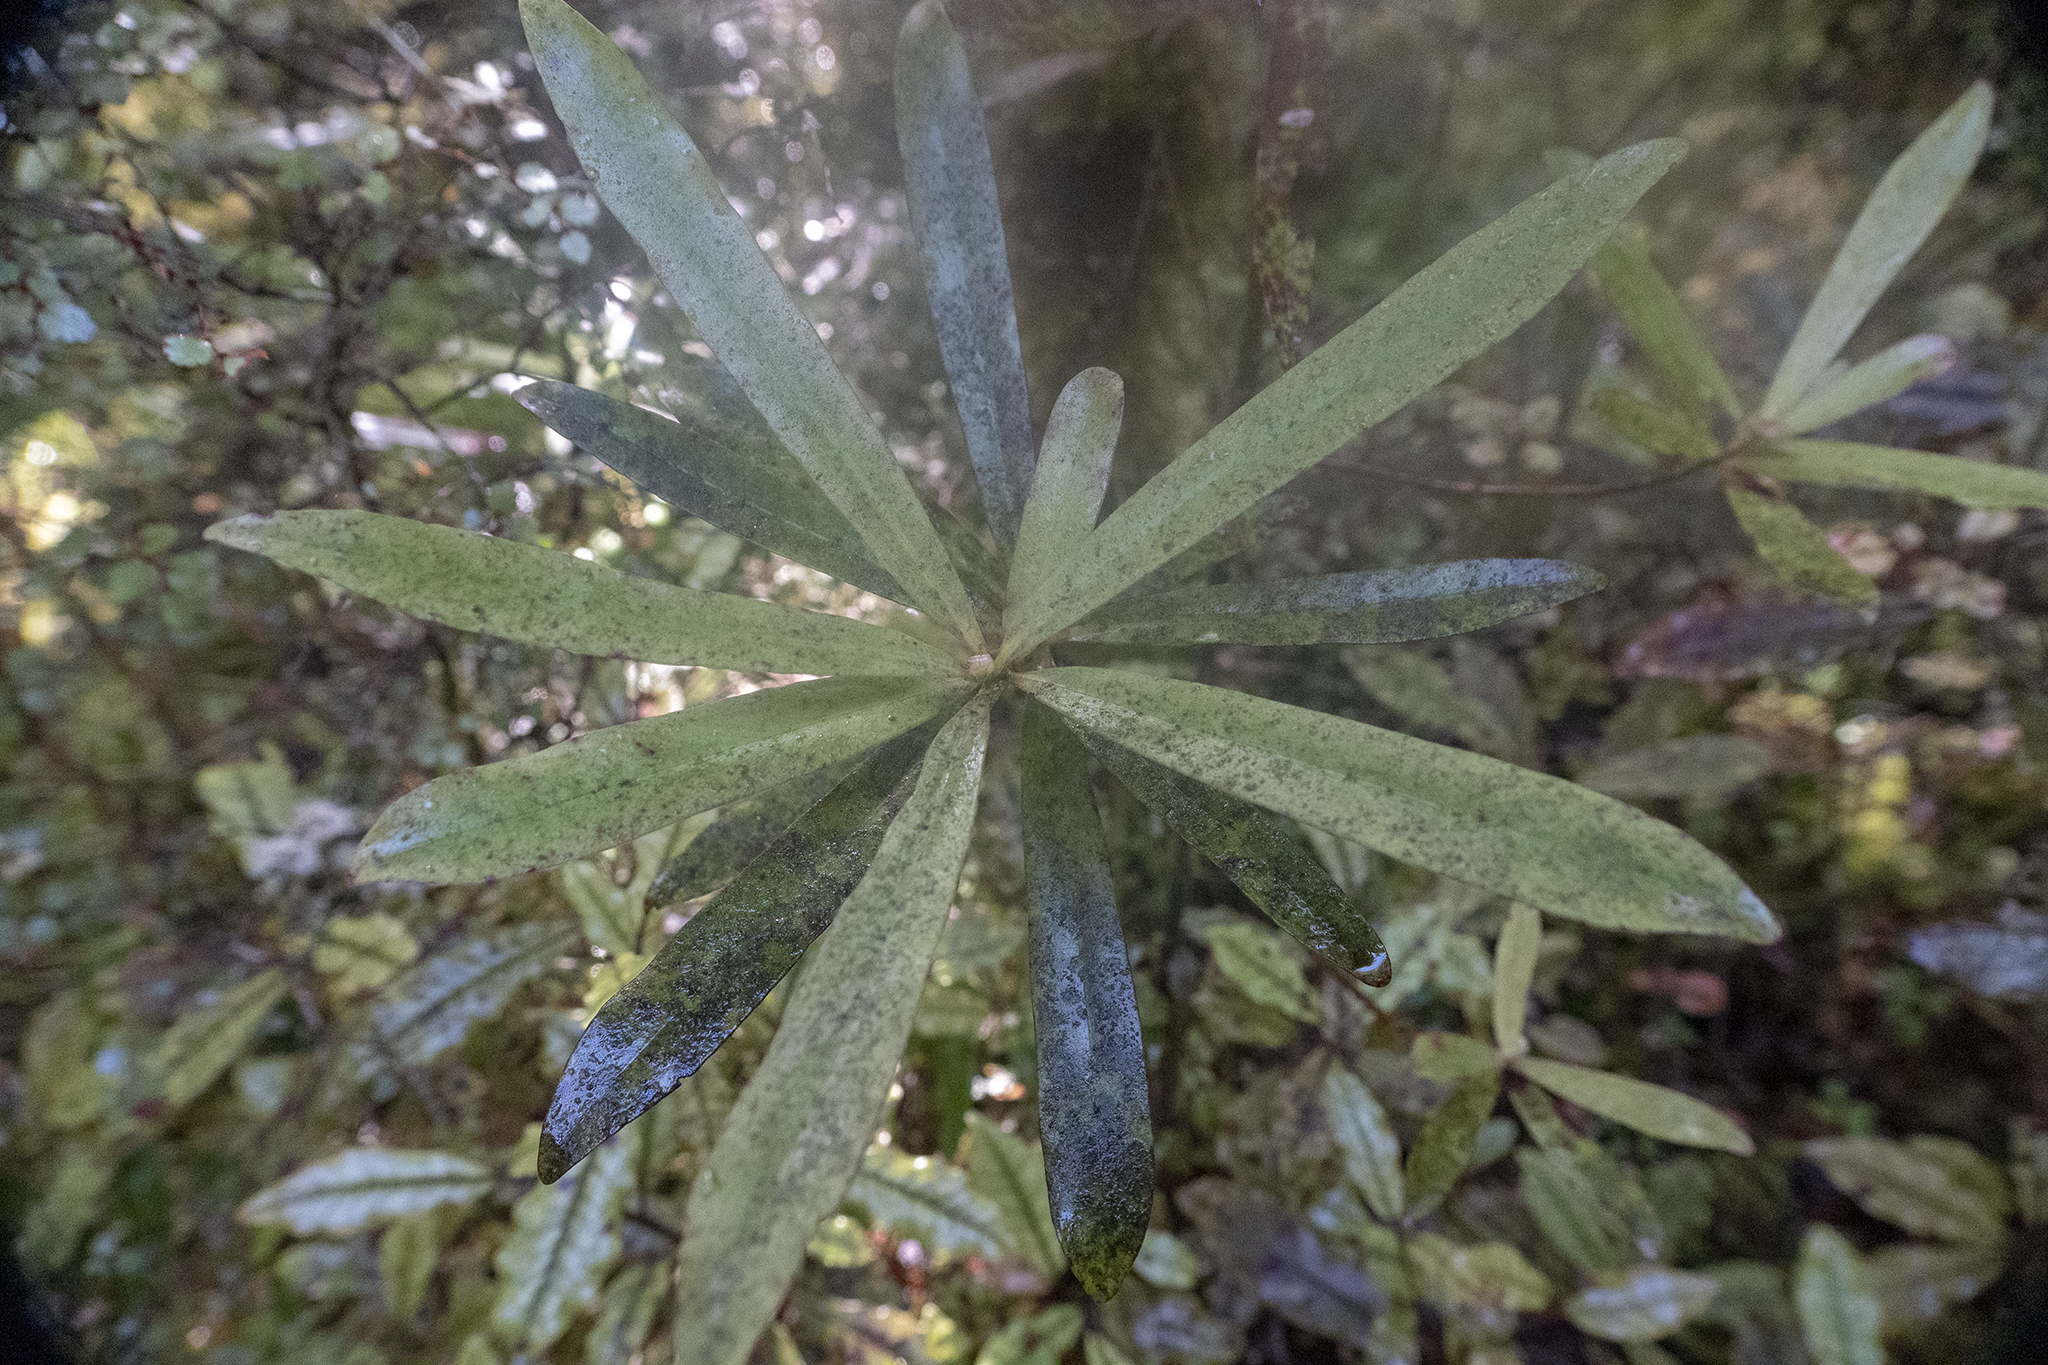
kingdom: Plantae
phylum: Tracheophyta
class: Magnoliopsida
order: Ericales
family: Primulaceae
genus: Myrsine
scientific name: Myrsine salicina
